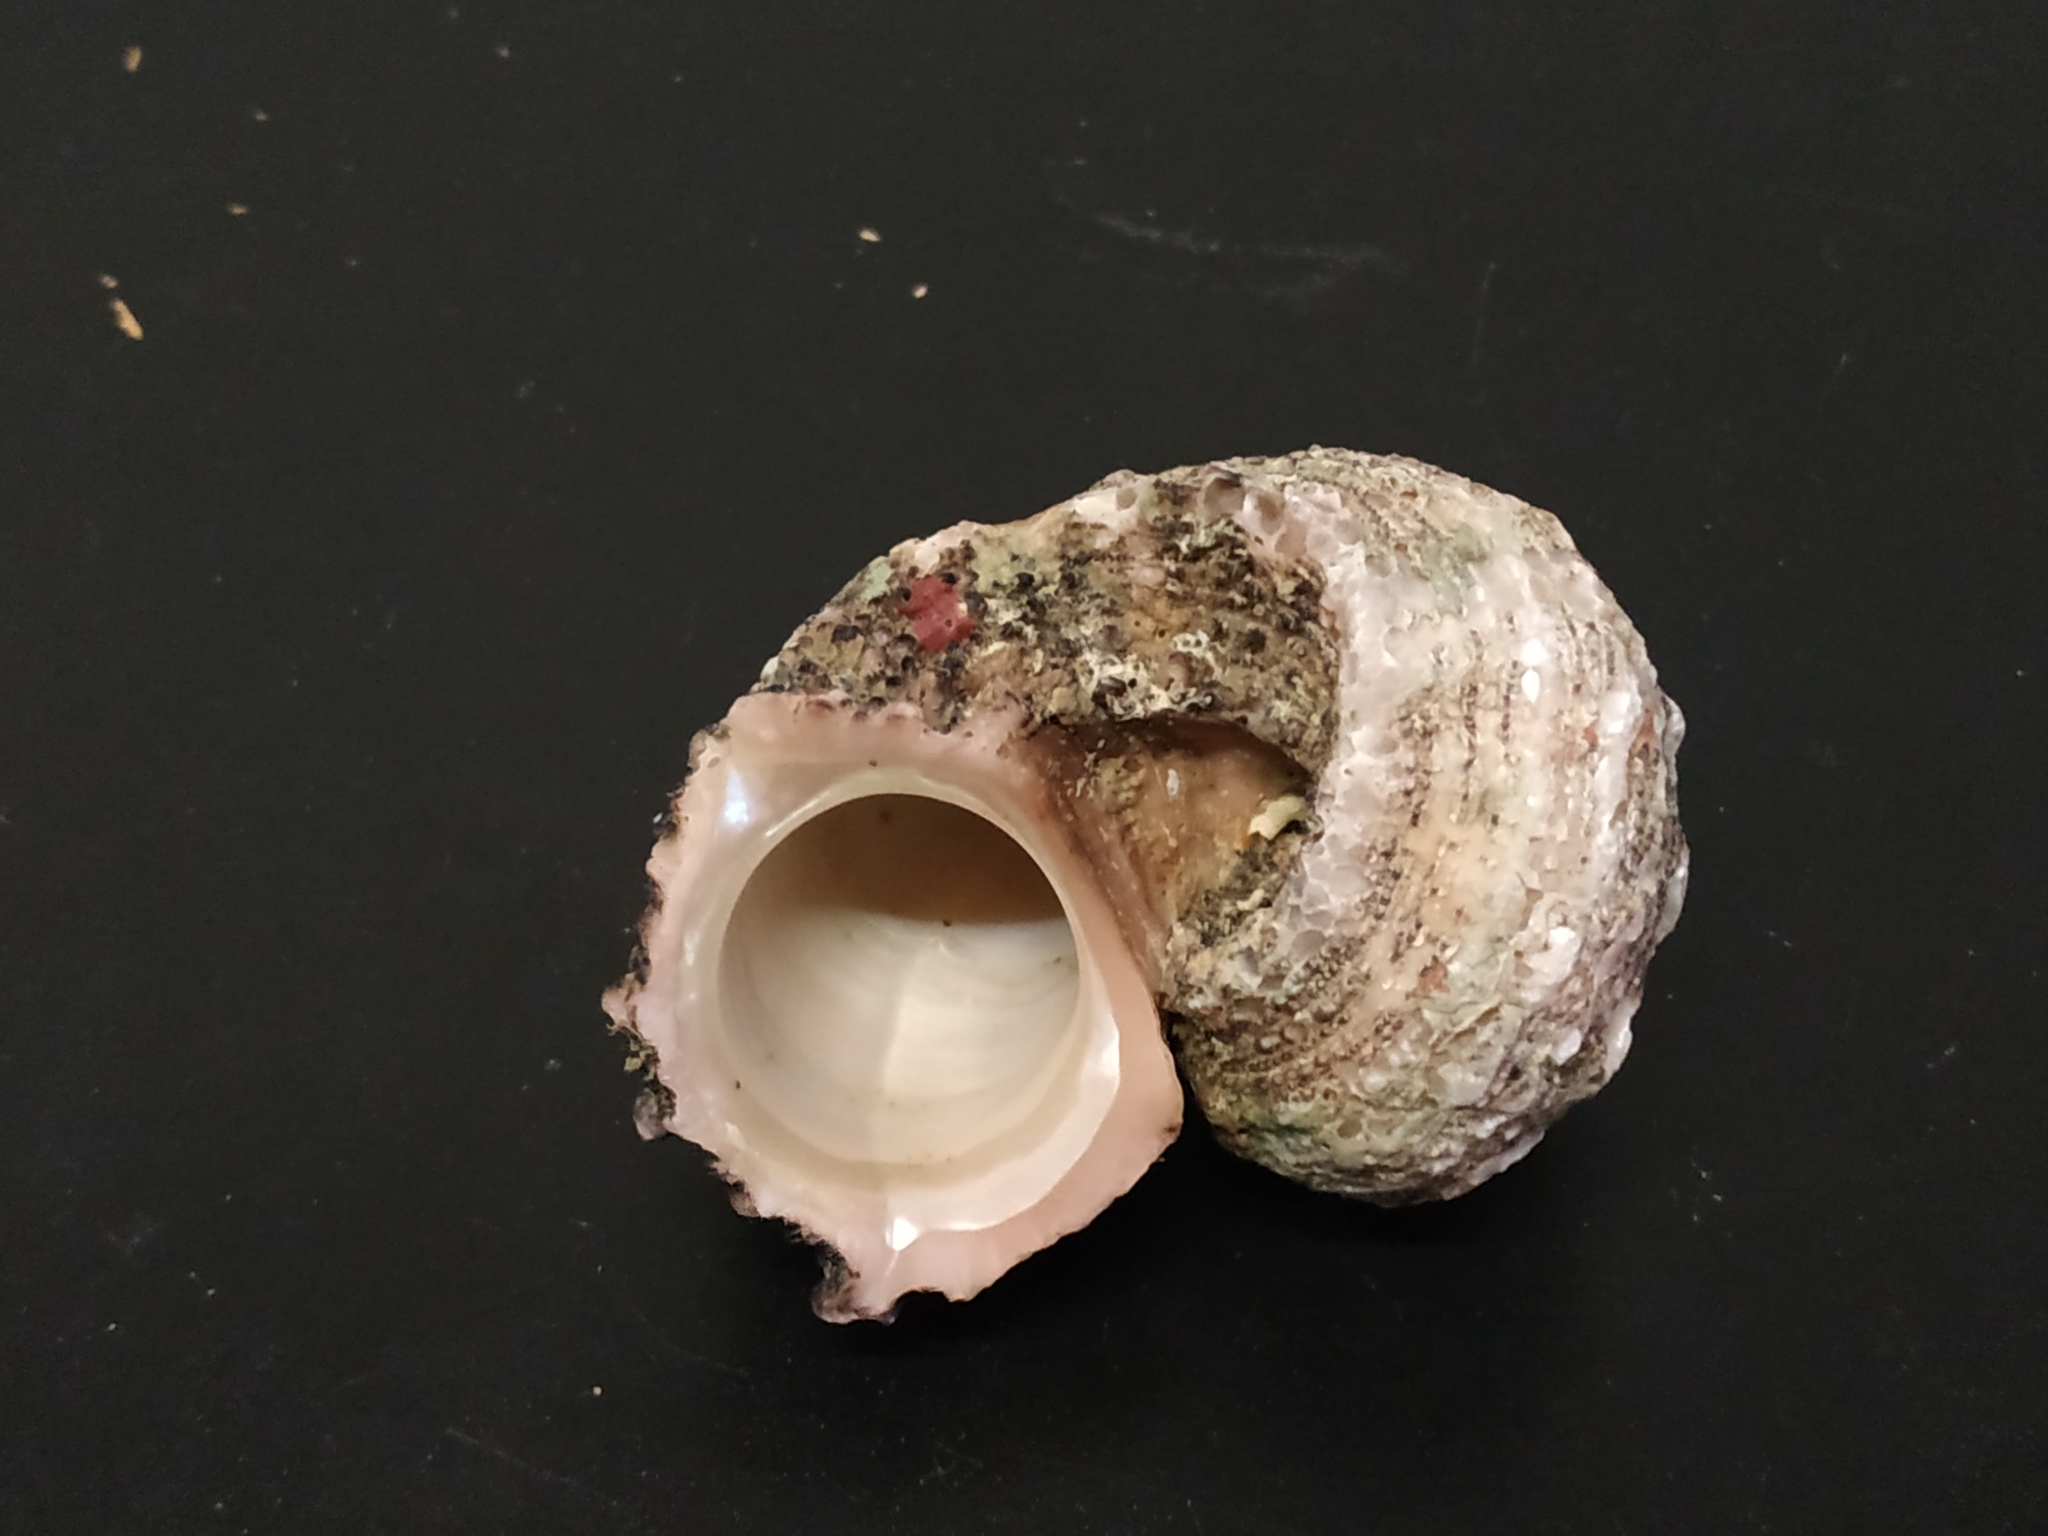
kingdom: Animalia
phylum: Mollusca
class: Gastropoda
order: Trochida
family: Angariidae
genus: Angaria
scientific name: Angaria delphinus
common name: Dolphin shell
